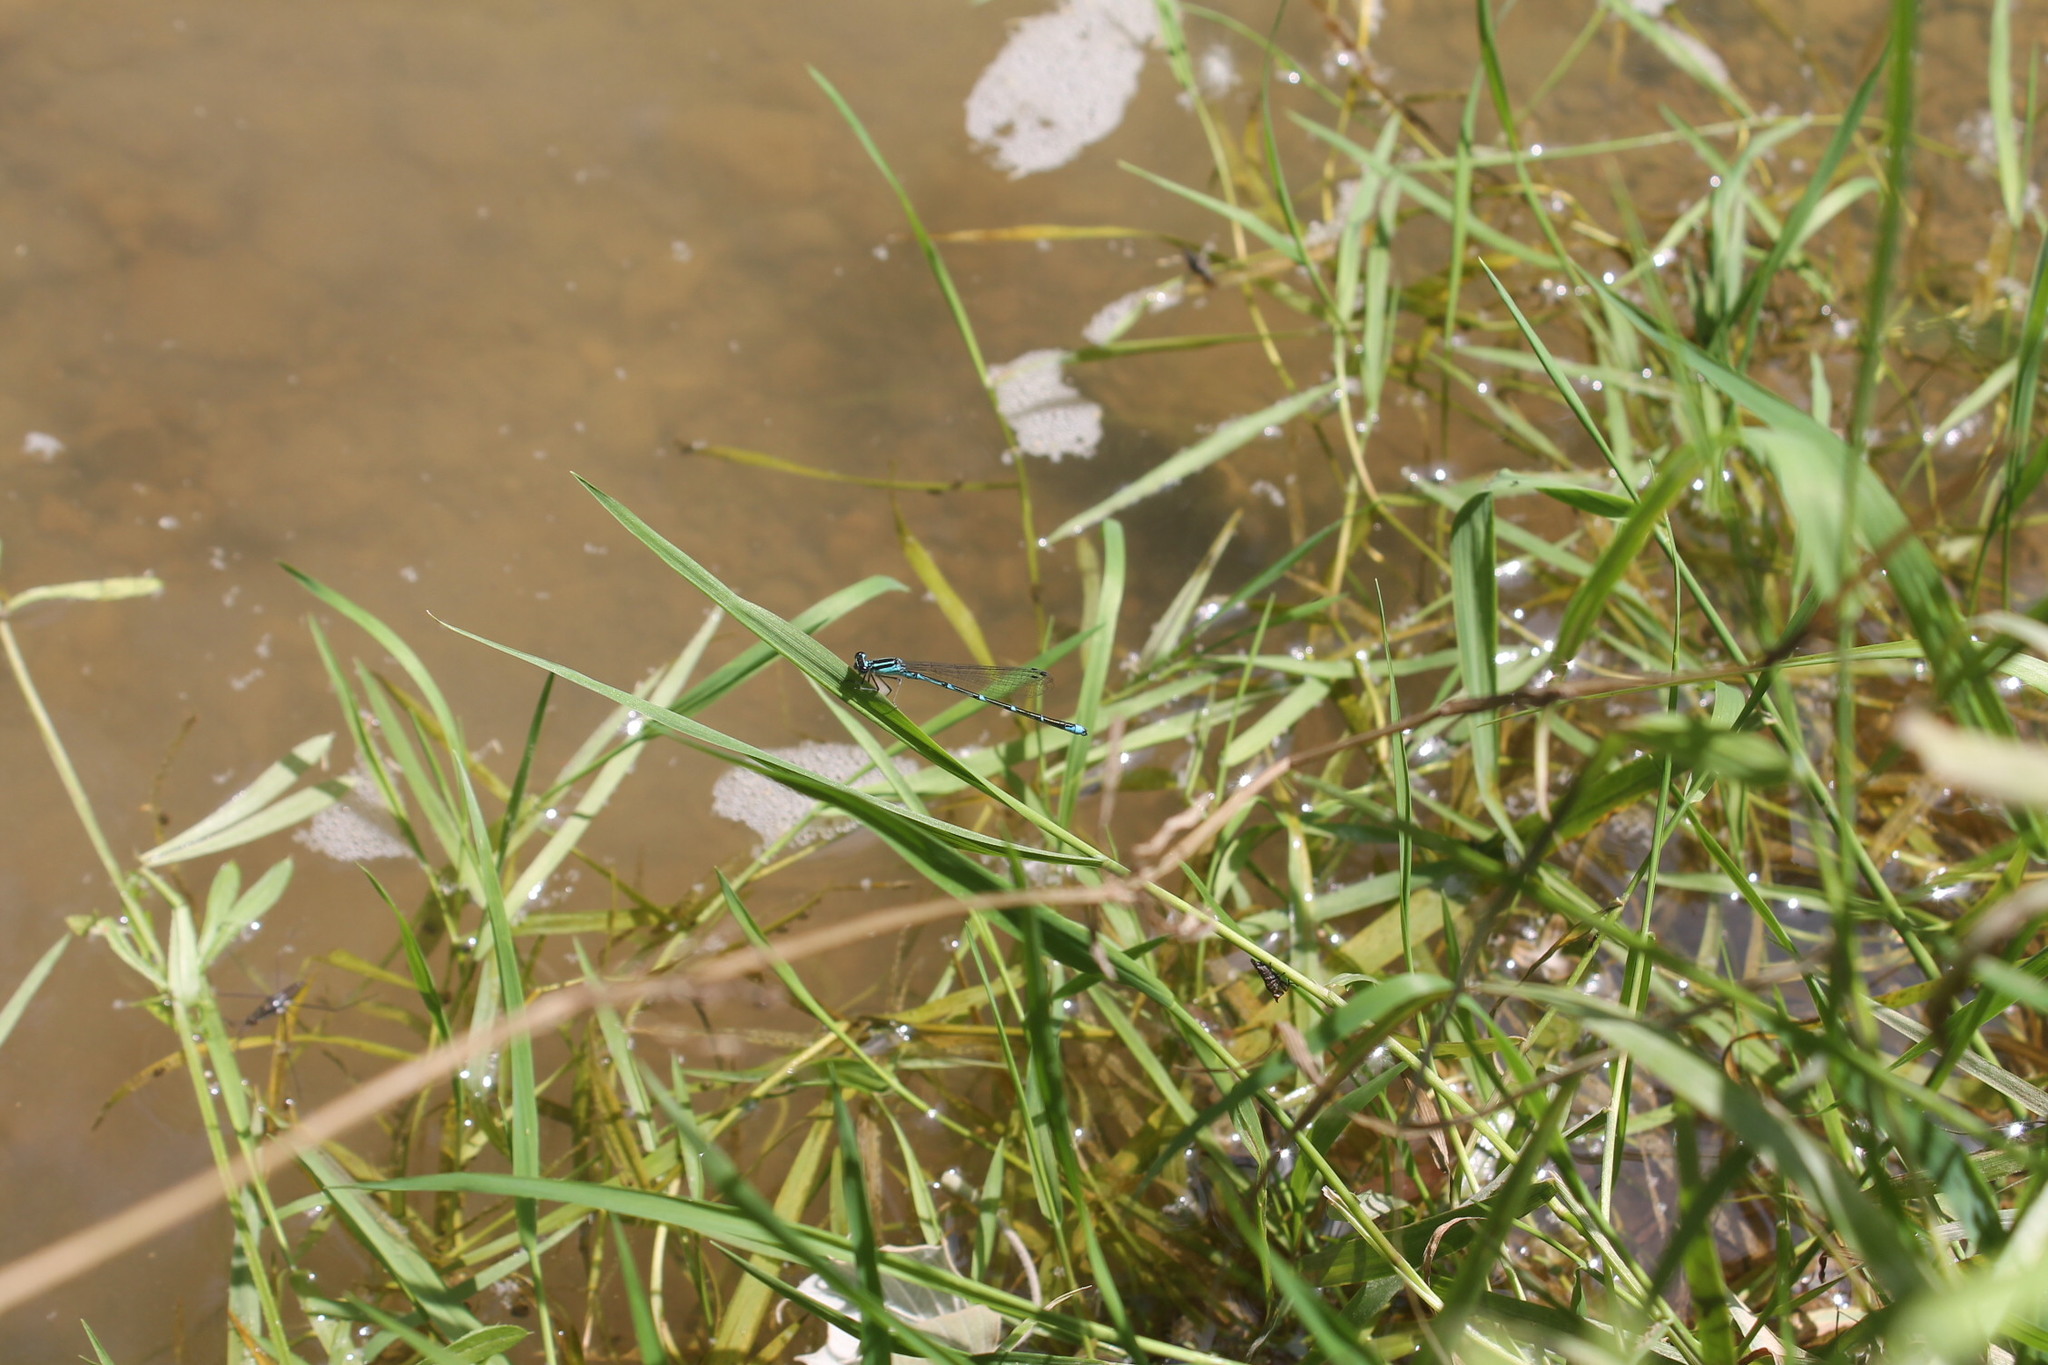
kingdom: Animalia
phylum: Arthropoda
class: Insecta
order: Odonata
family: Coenagrionidae
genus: Enallagma
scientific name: Enallagma exsulans
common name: Stream bluet
